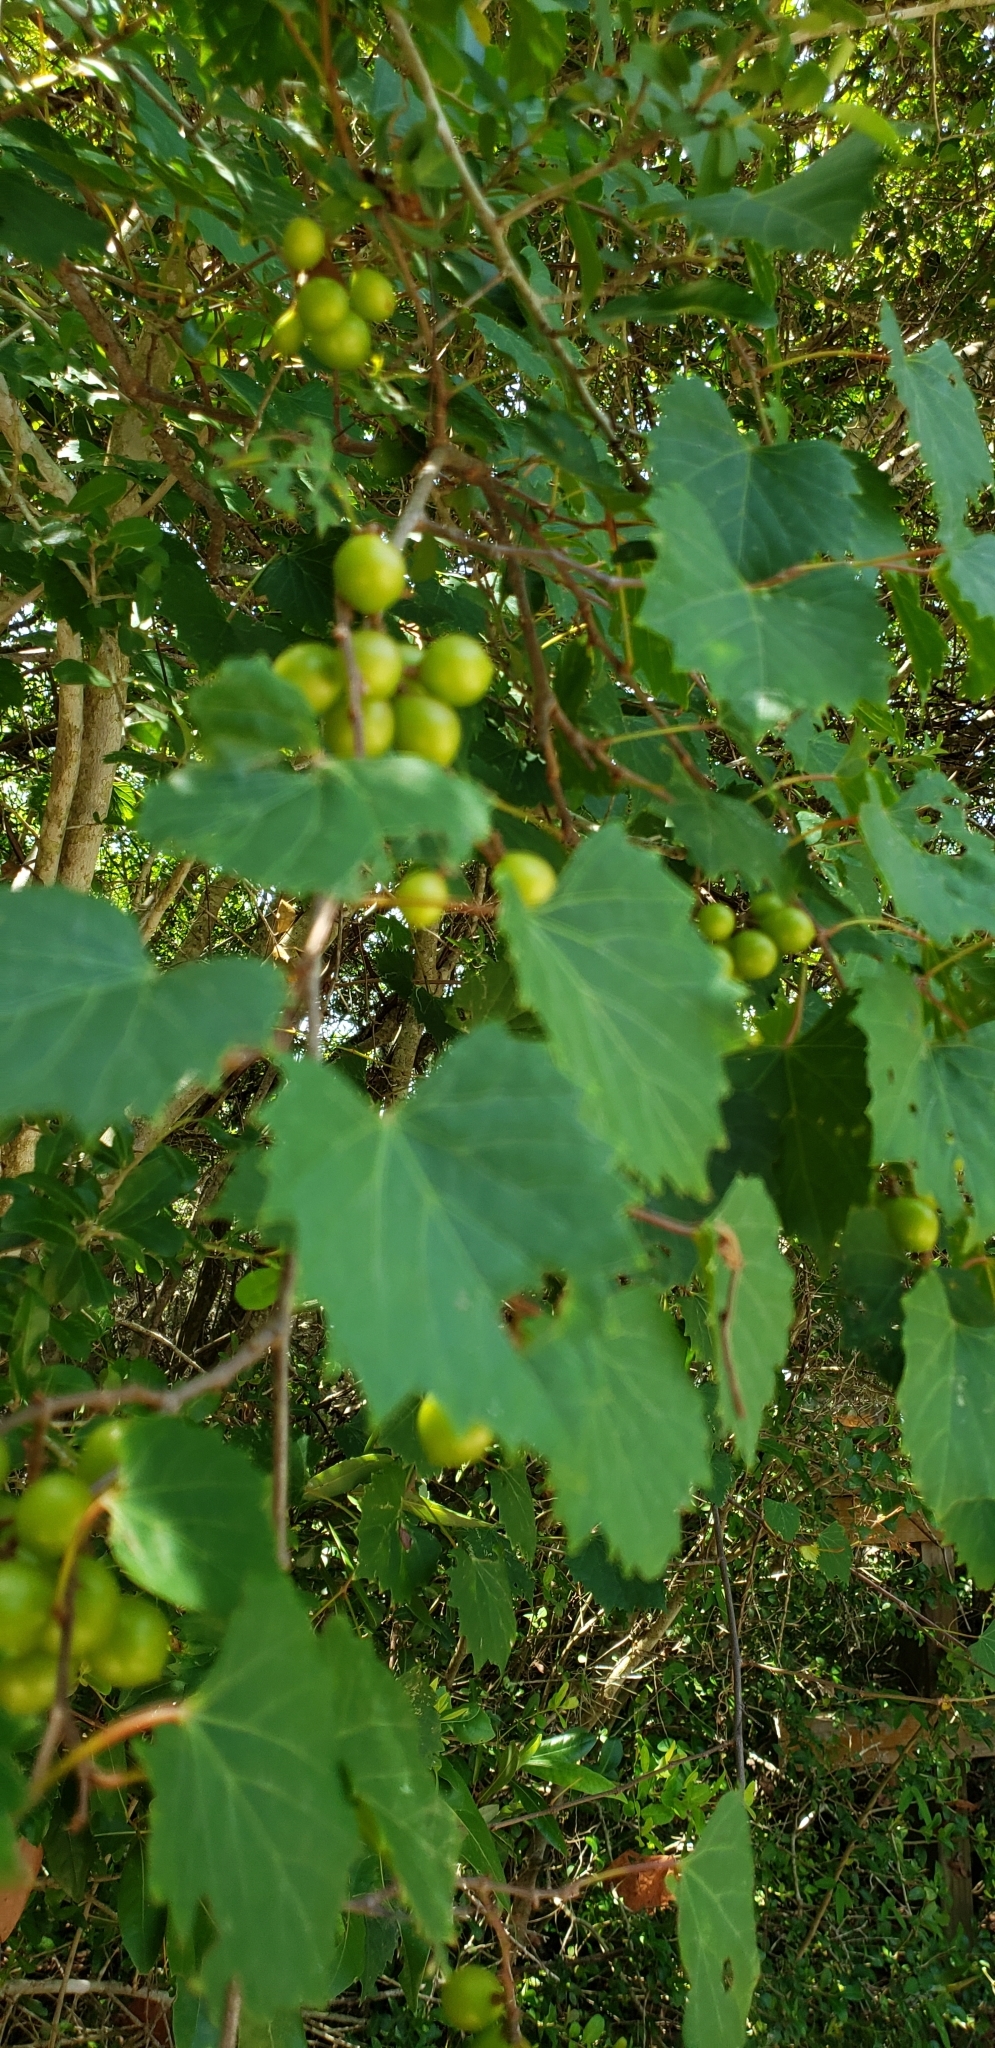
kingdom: Plantae
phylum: Tracheophyta
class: Magnoliopsida
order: Vitales
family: Vitaceae
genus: Vitis
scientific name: Vitis rotundifolia
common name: Muscadine grape
